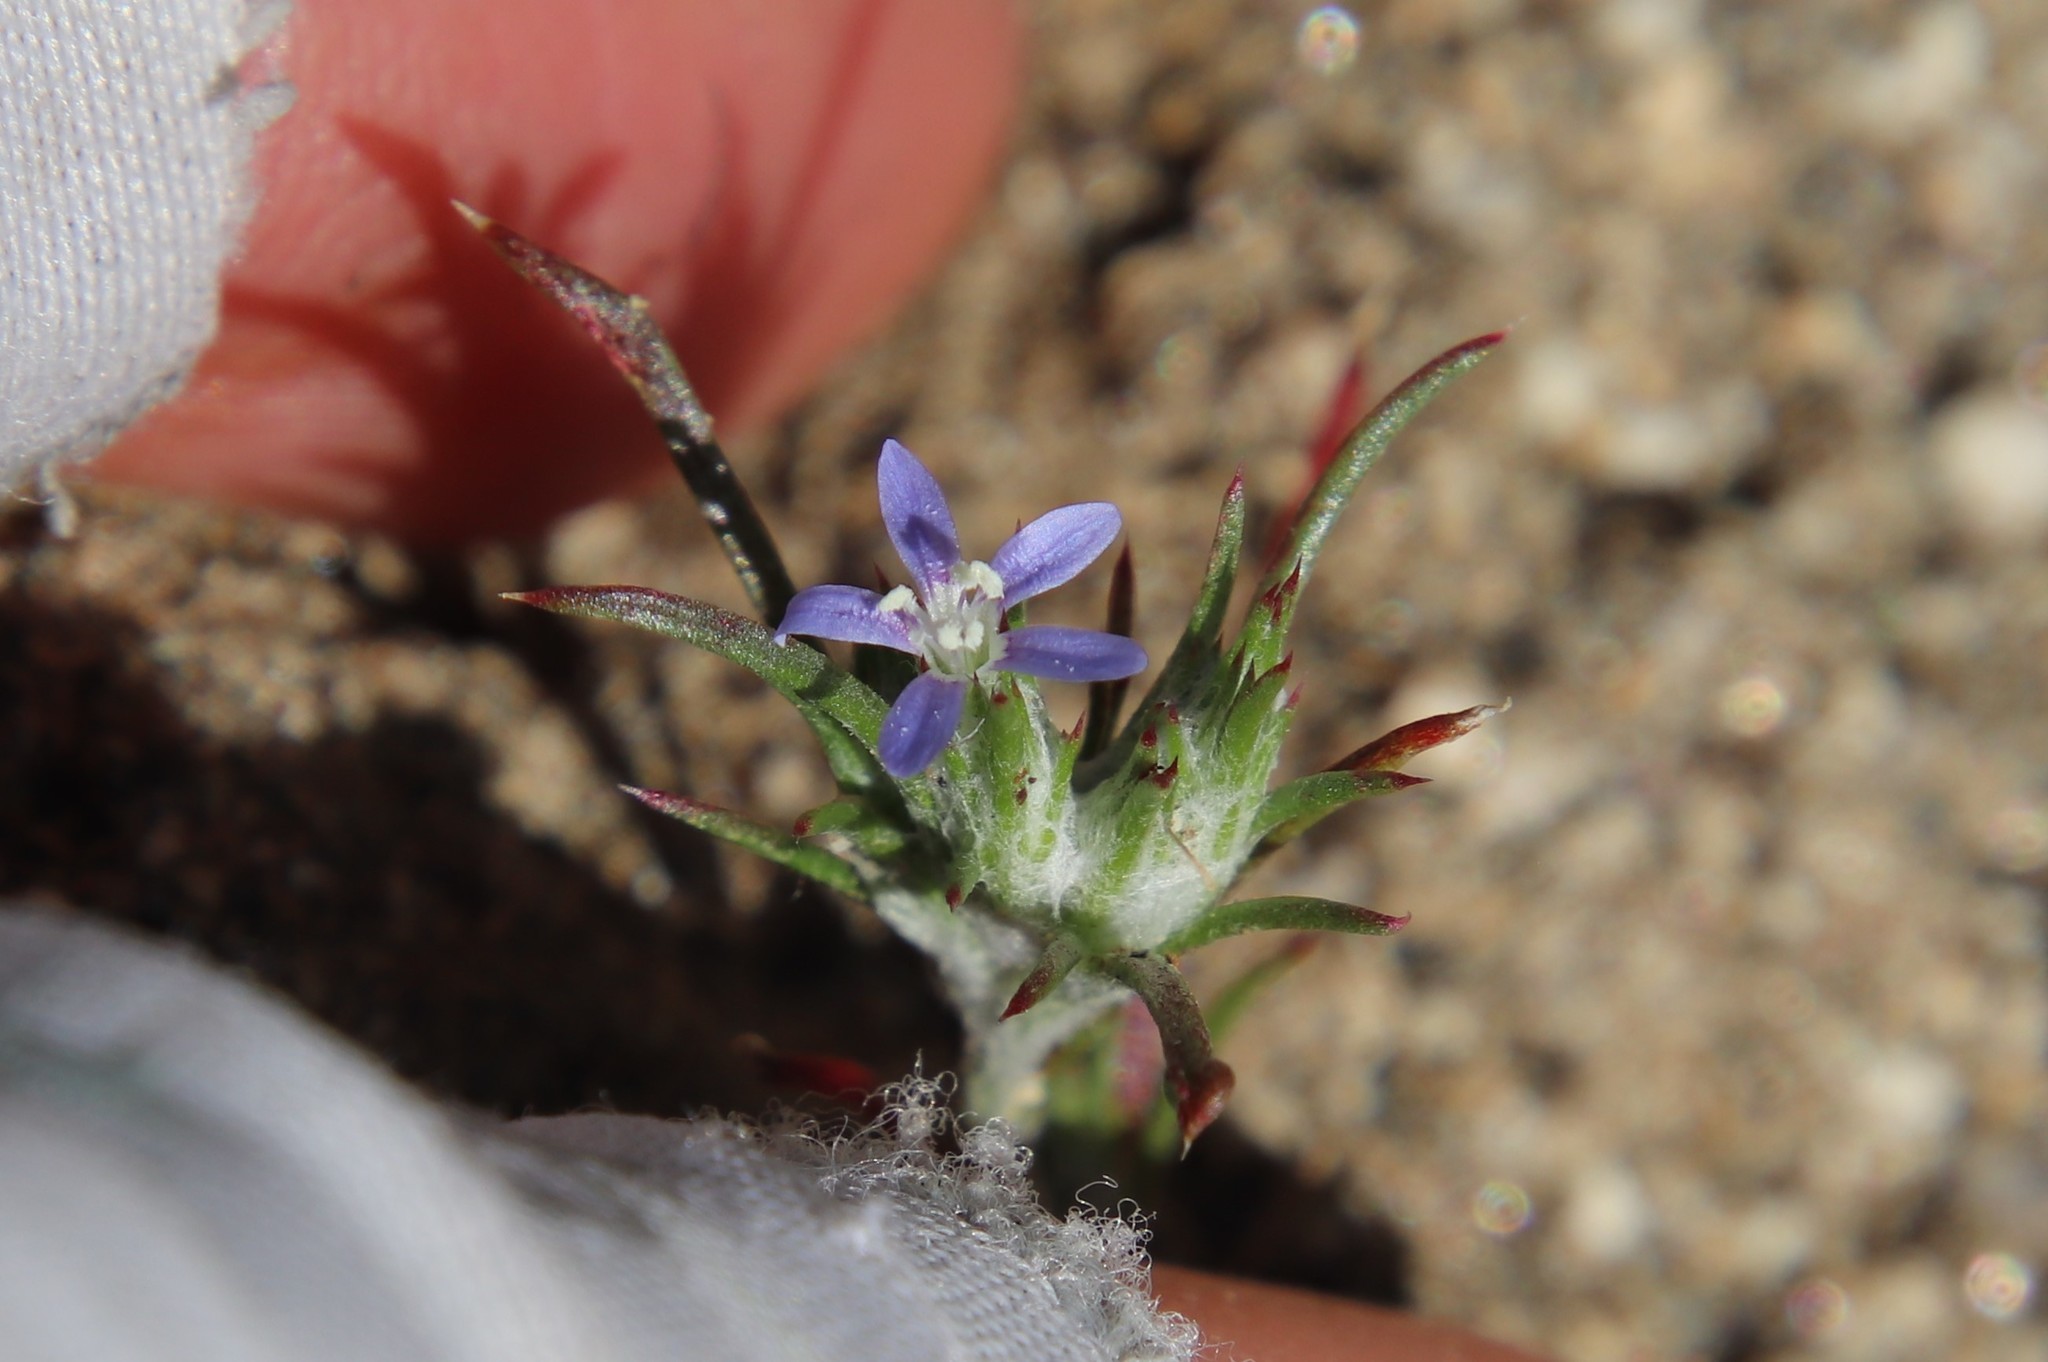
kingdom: Plantae
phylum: Tracheophyta
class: Magnoliopsida
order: Ericales
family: Polemoniaceae
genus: Eriastrum
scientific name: Eriastrum filifolium
